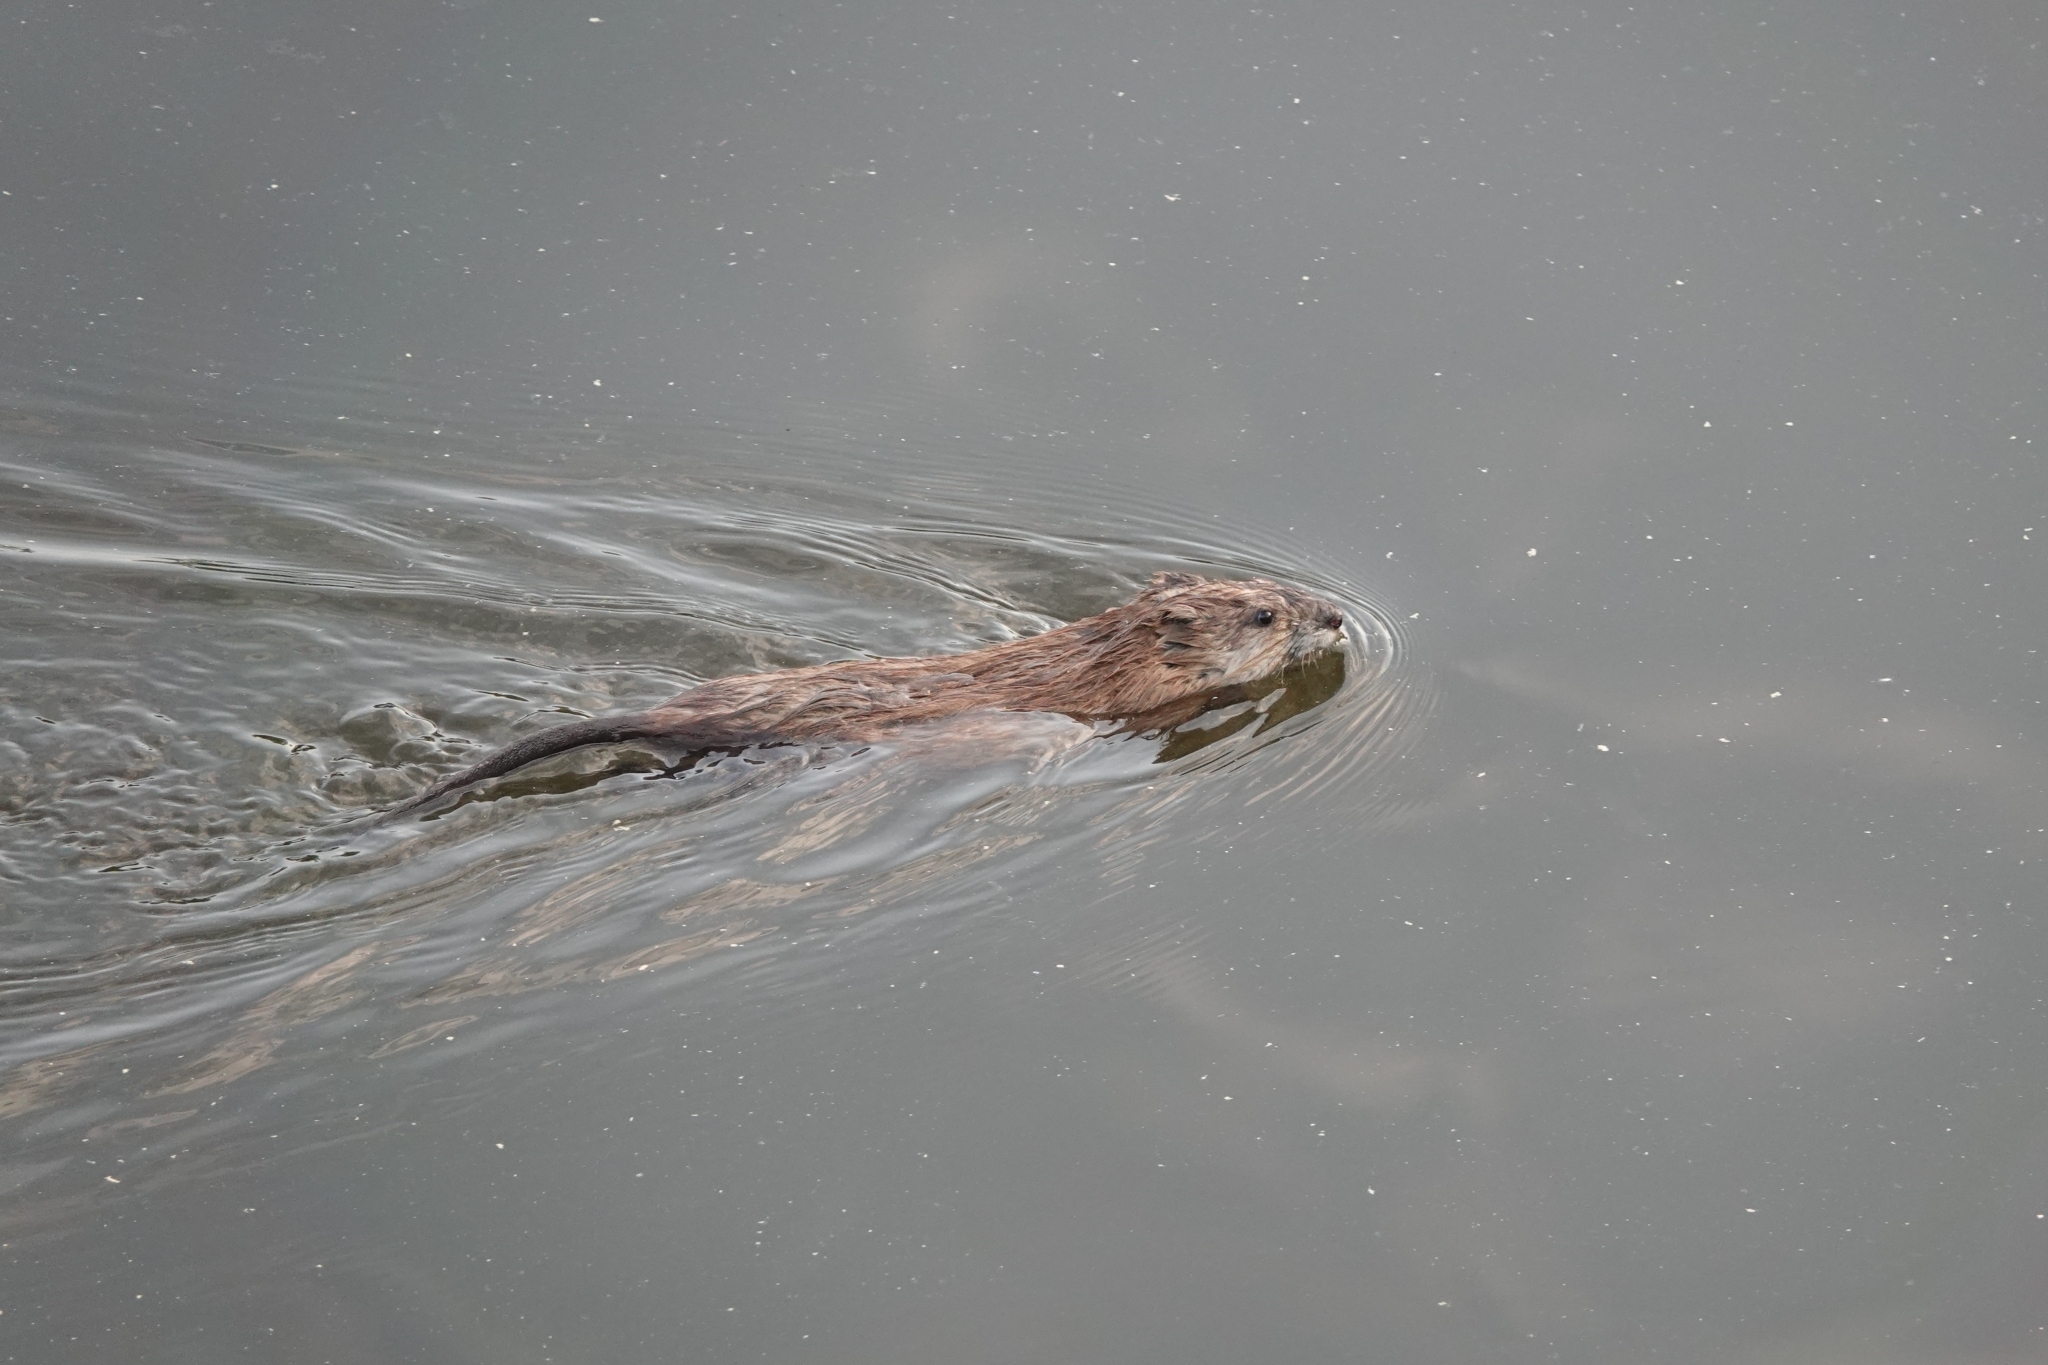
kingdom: Animalia
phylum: Chordata
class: Mammalia
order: Rodentia
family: Cricetidae
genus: Ondatra
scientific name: Ondatra zibethicus
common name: Muskrat
